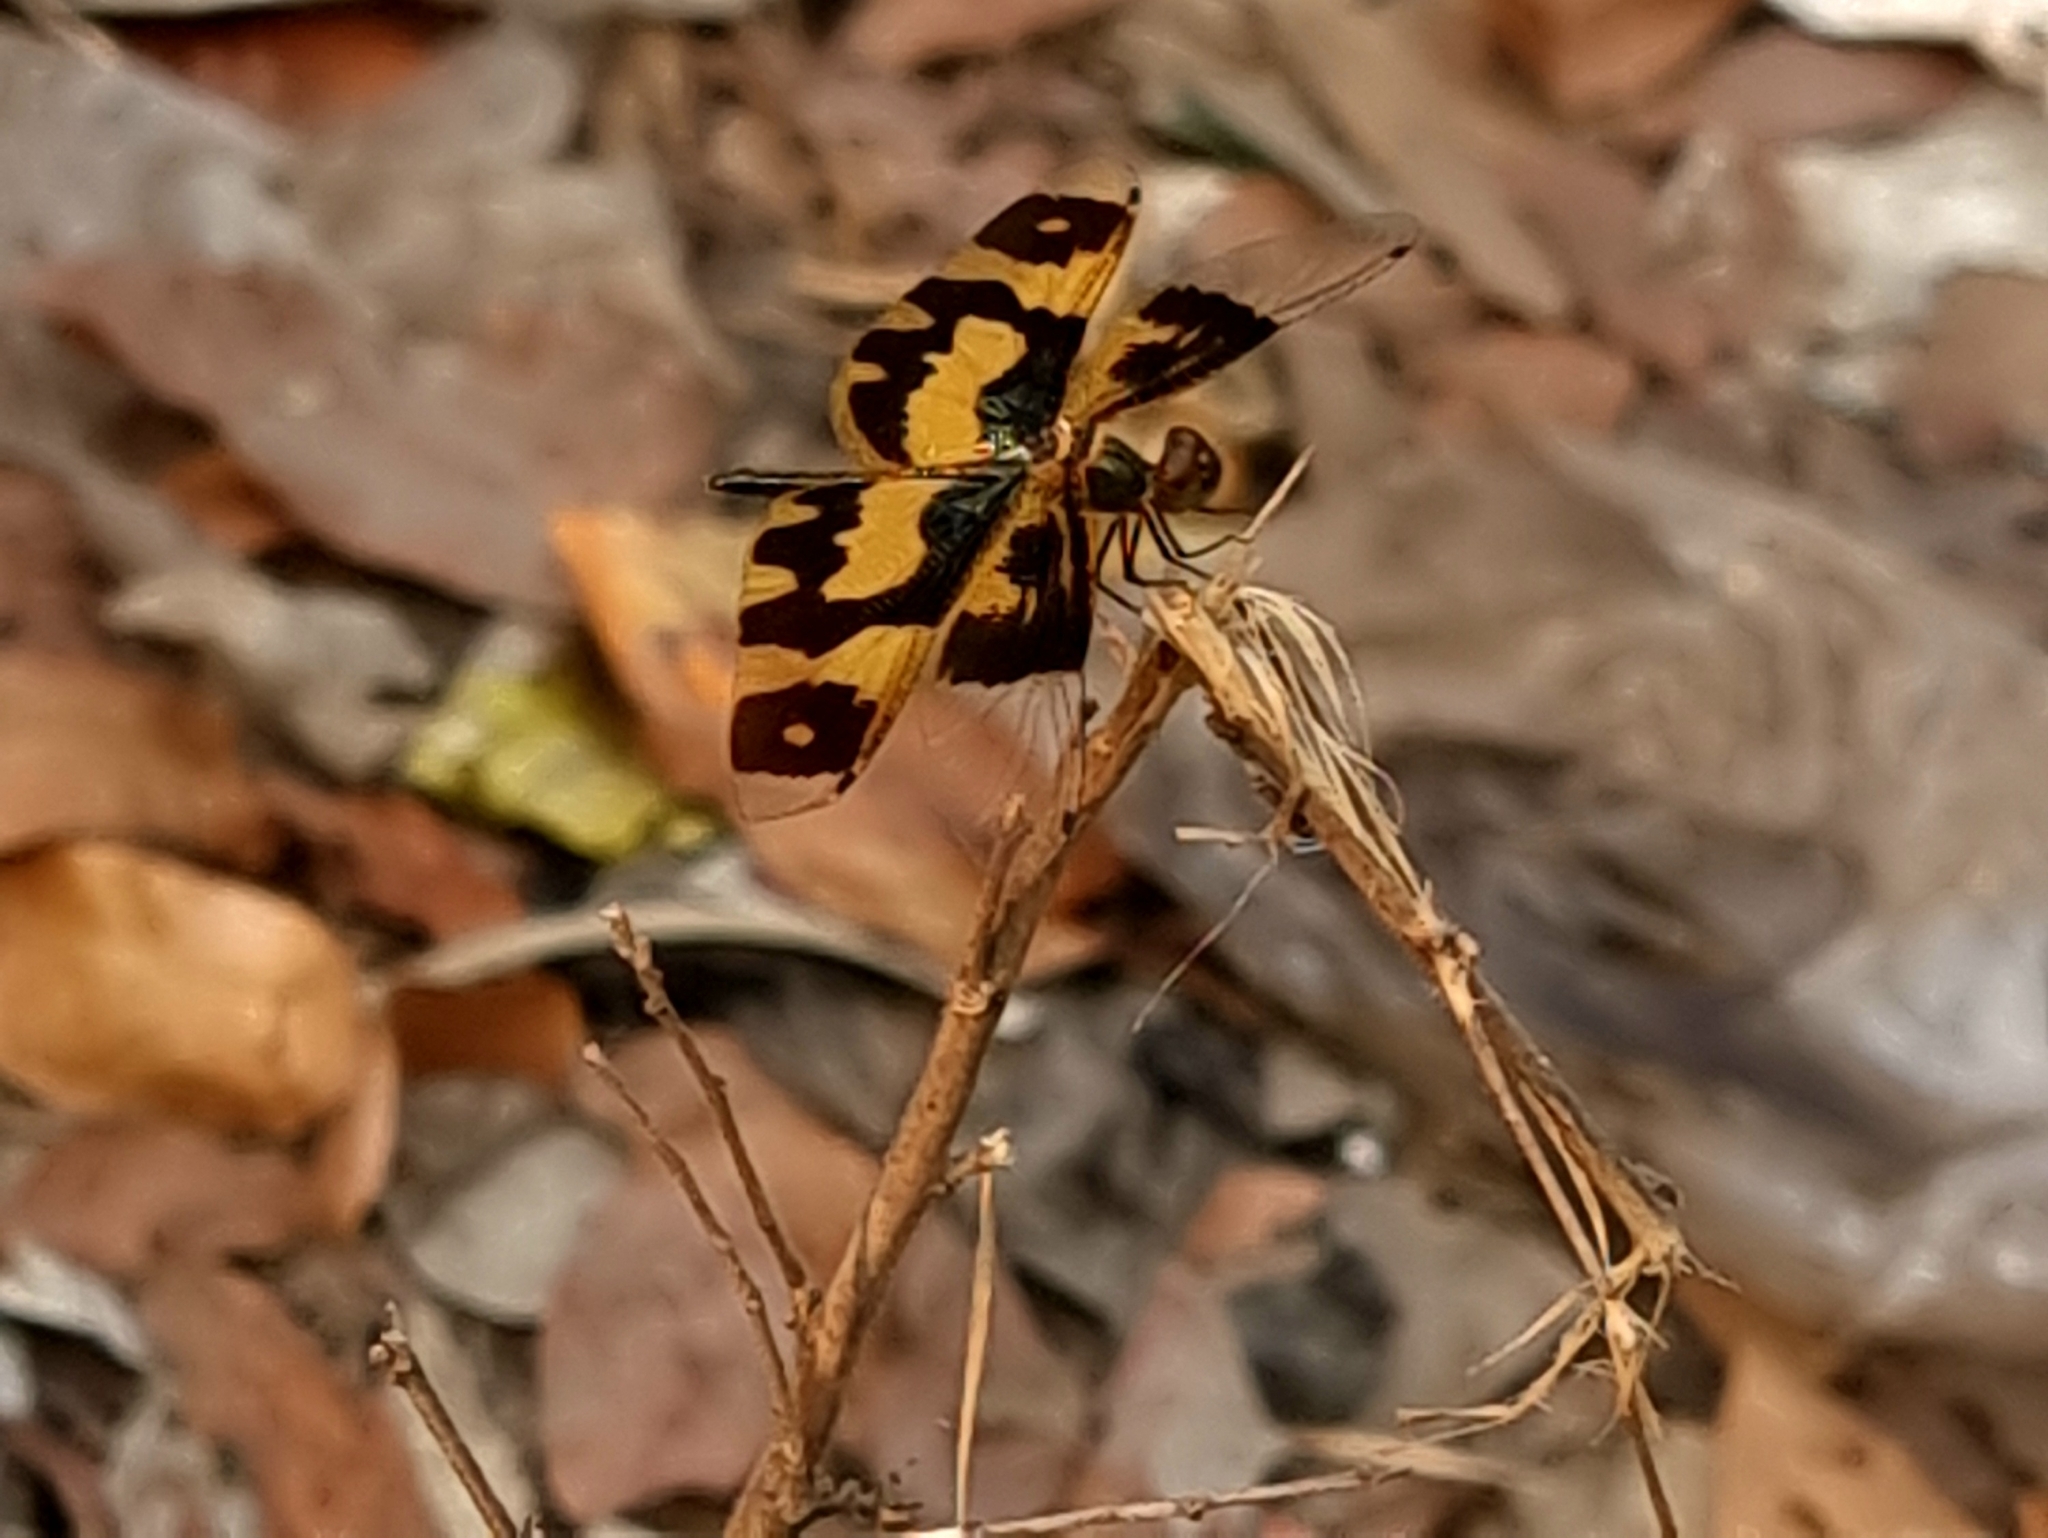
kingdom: Animalia
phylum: Arthropoda
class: Insecta
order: Odonata
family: Libellulidae
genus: Rhyothemis
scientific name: Rhyothemis variegata
